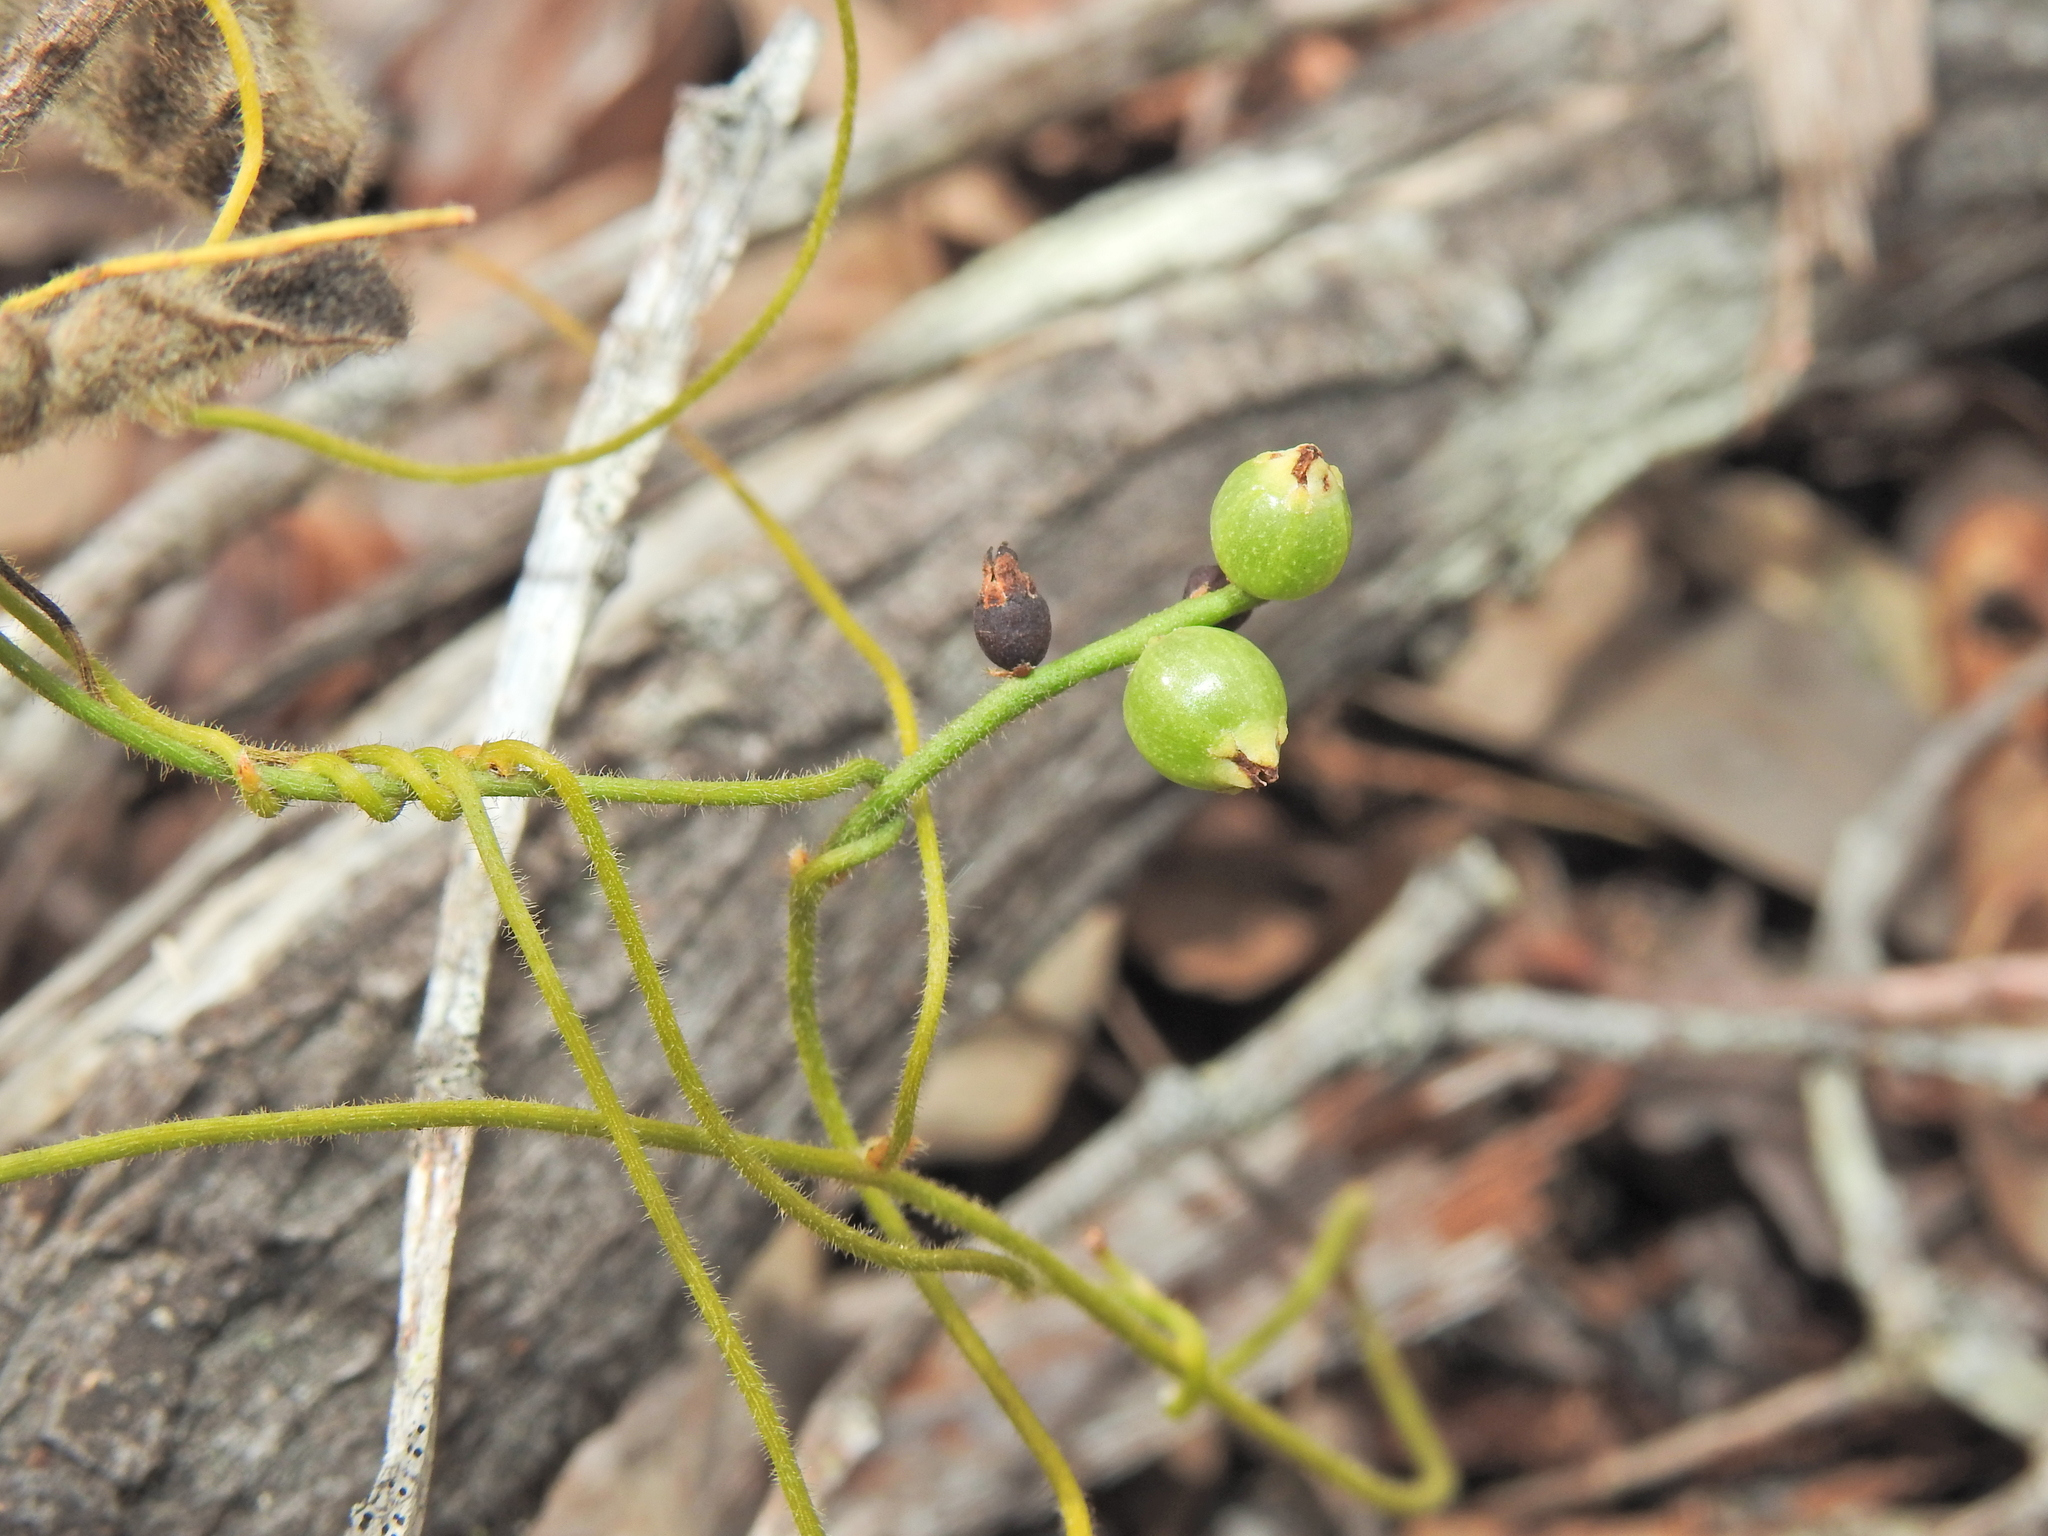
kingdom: Plantae
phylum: Tracheophyta
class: Magnoliopsida
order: Laurales
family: Lauraceae
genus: Cassytha
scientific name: Cassytha filiformis
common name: Dodder-laurel
